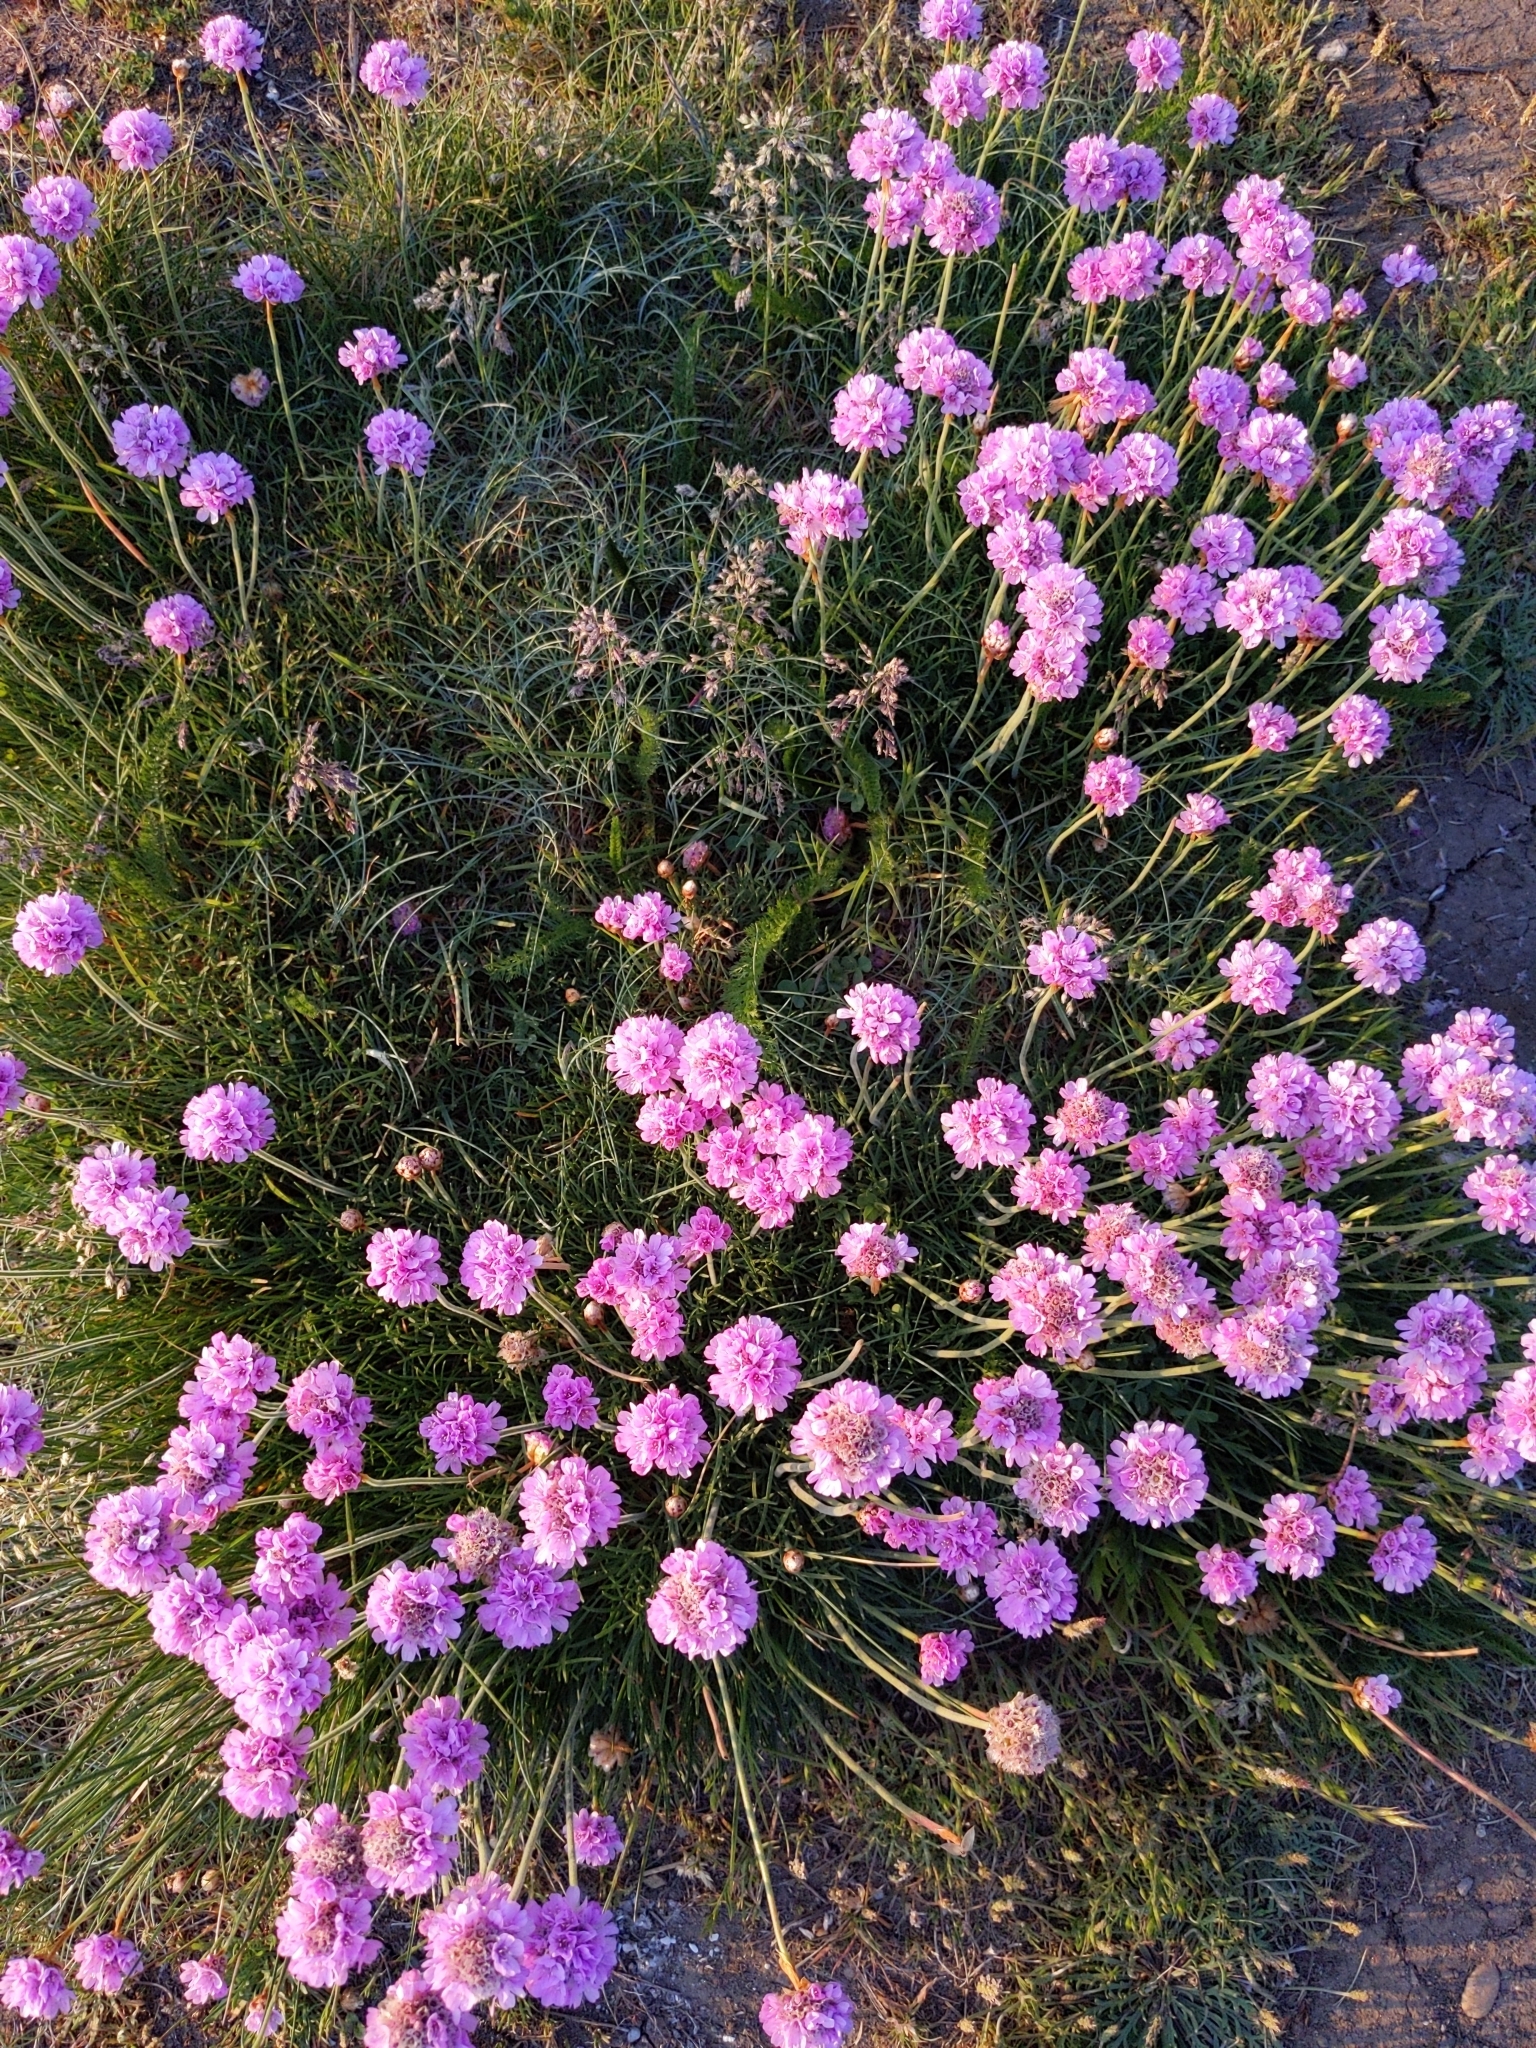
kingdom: Plantae
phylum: Tracheophyta
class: Magnoliopsida
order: Caryophyllales
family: Plumbaginaceae
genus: Armeria
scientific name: Armeria maritima
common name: Thrift
